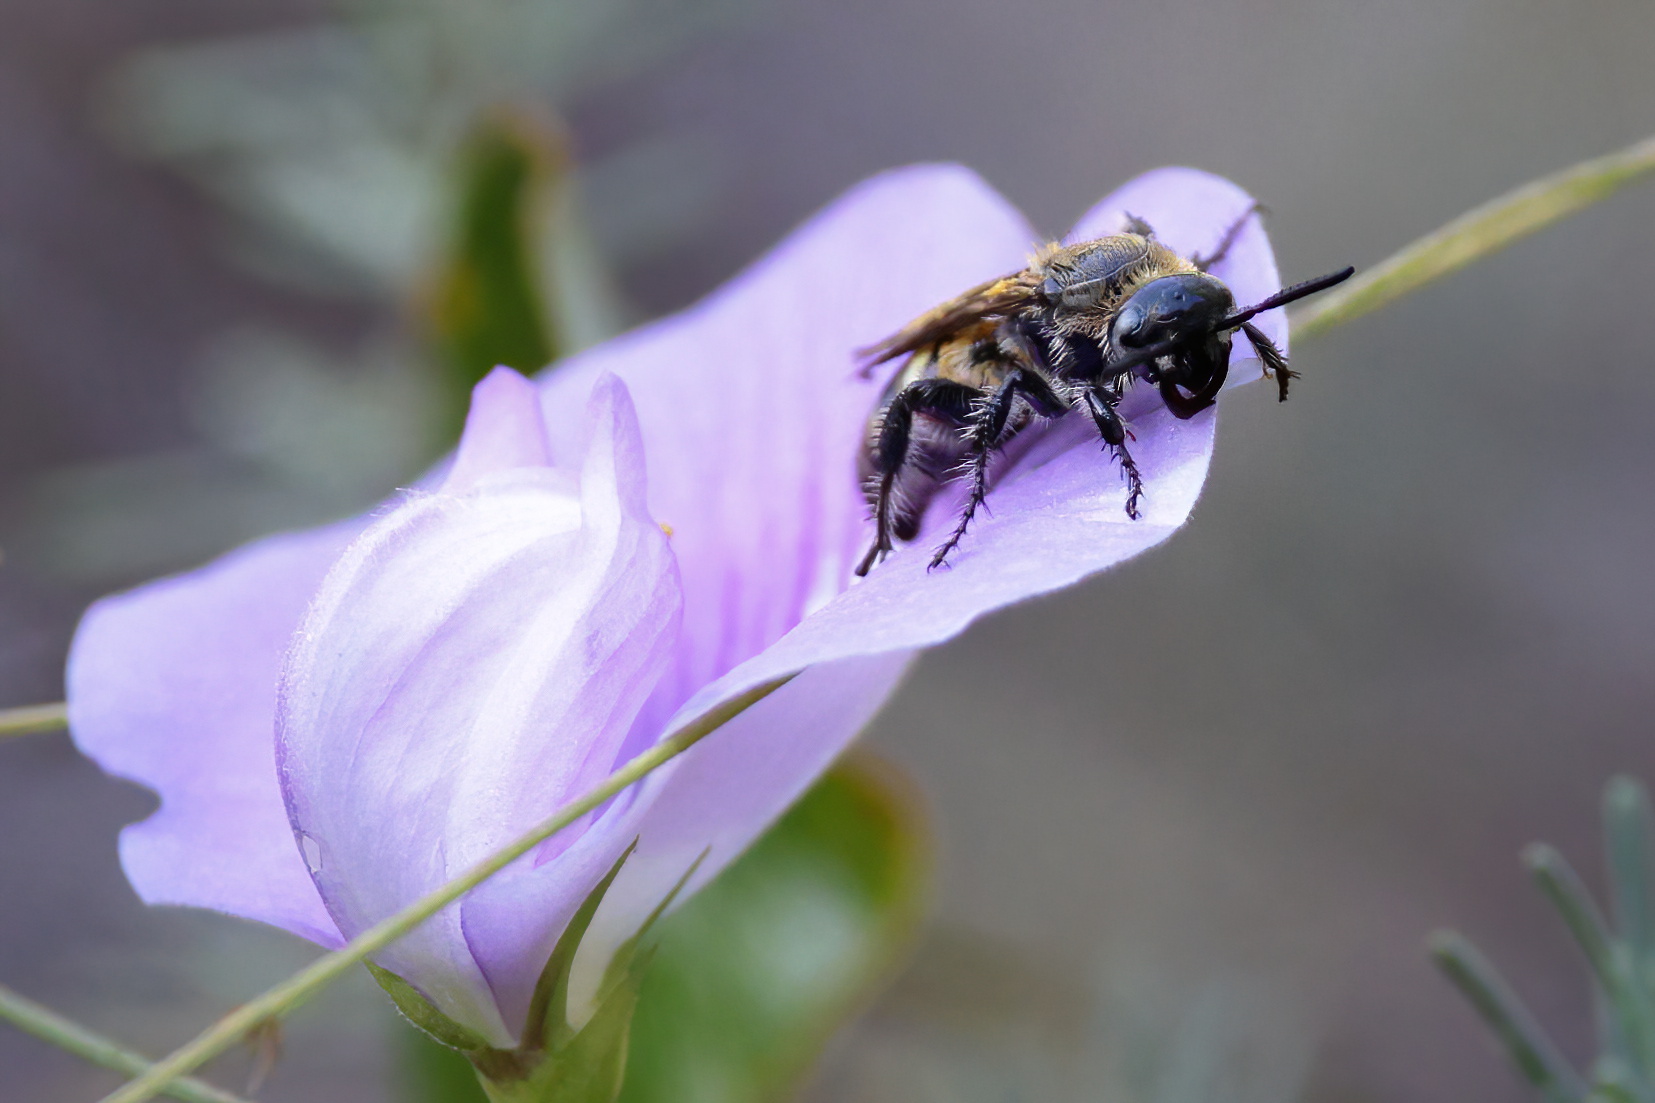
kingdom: Animalia
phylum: Arthropoda
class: Insecta
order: Hymenoptera
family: Scoliidae
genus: Dielis
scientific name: Dielis
